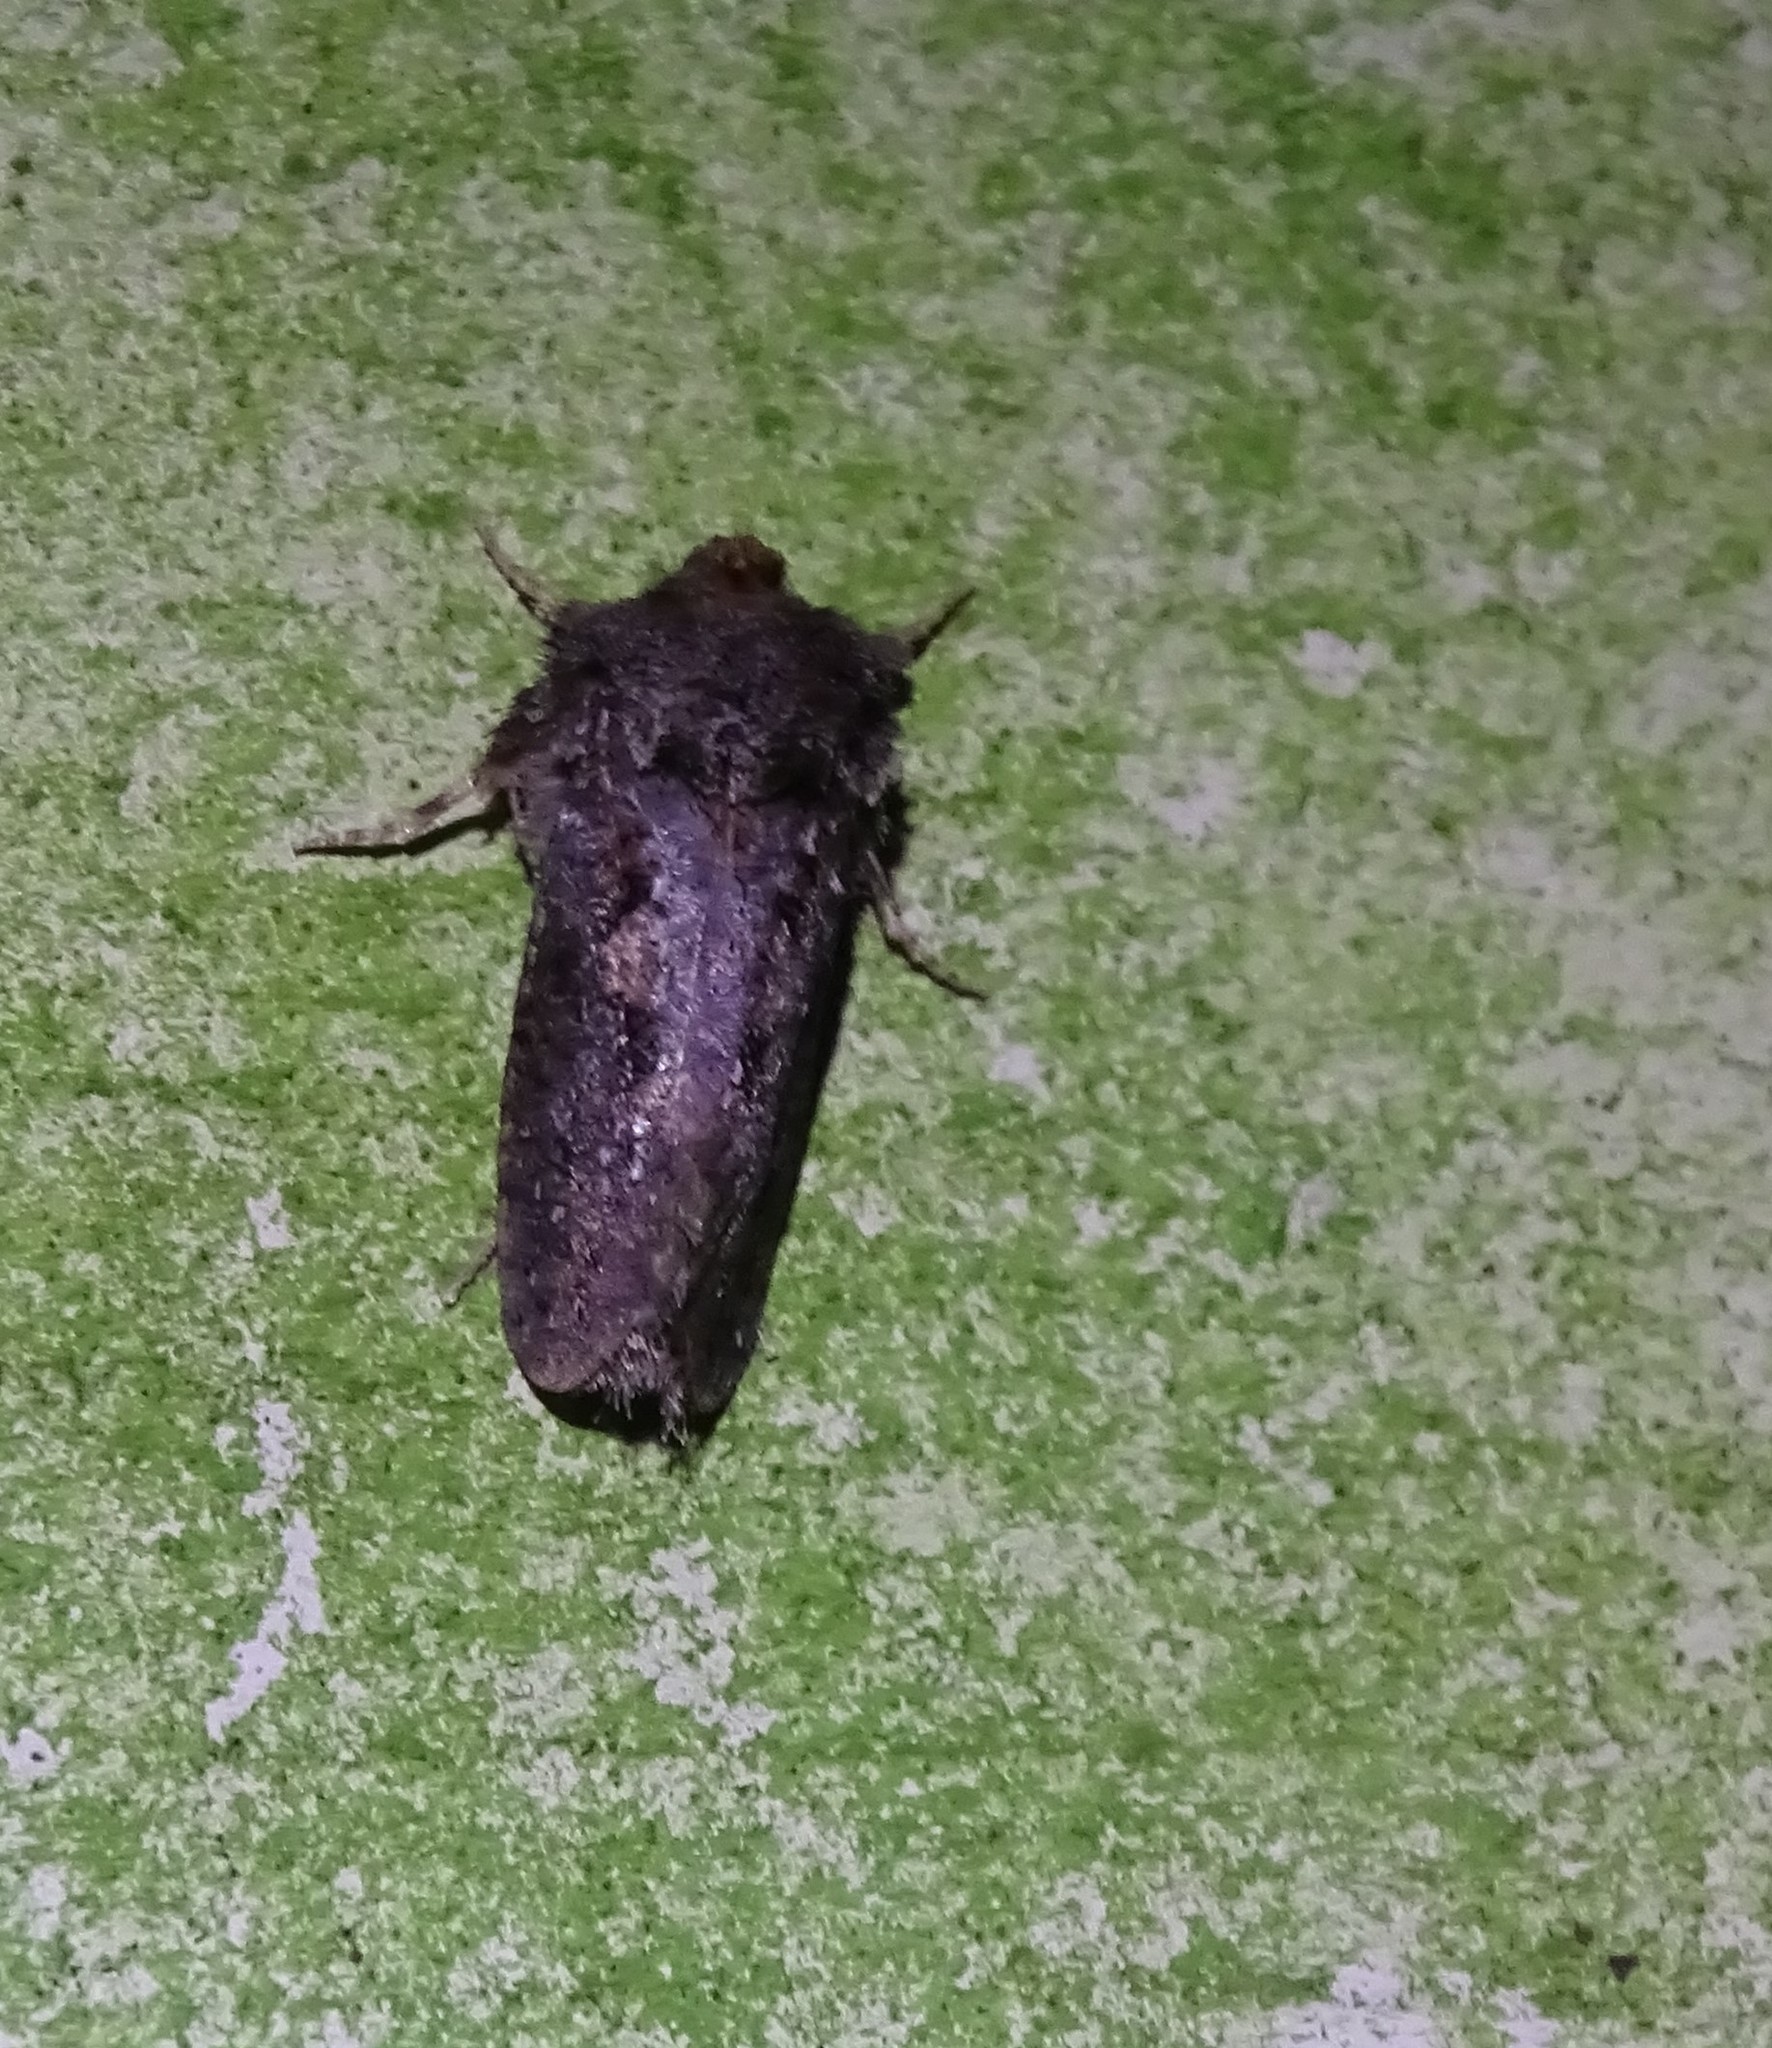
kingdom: Animalia
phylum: Arthropoda
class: Insecta
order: Lepidoptera
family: Tineidae
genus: Acrolophus
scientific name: Acrolophus arcanella
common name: Arcane grass tubeworm moth
